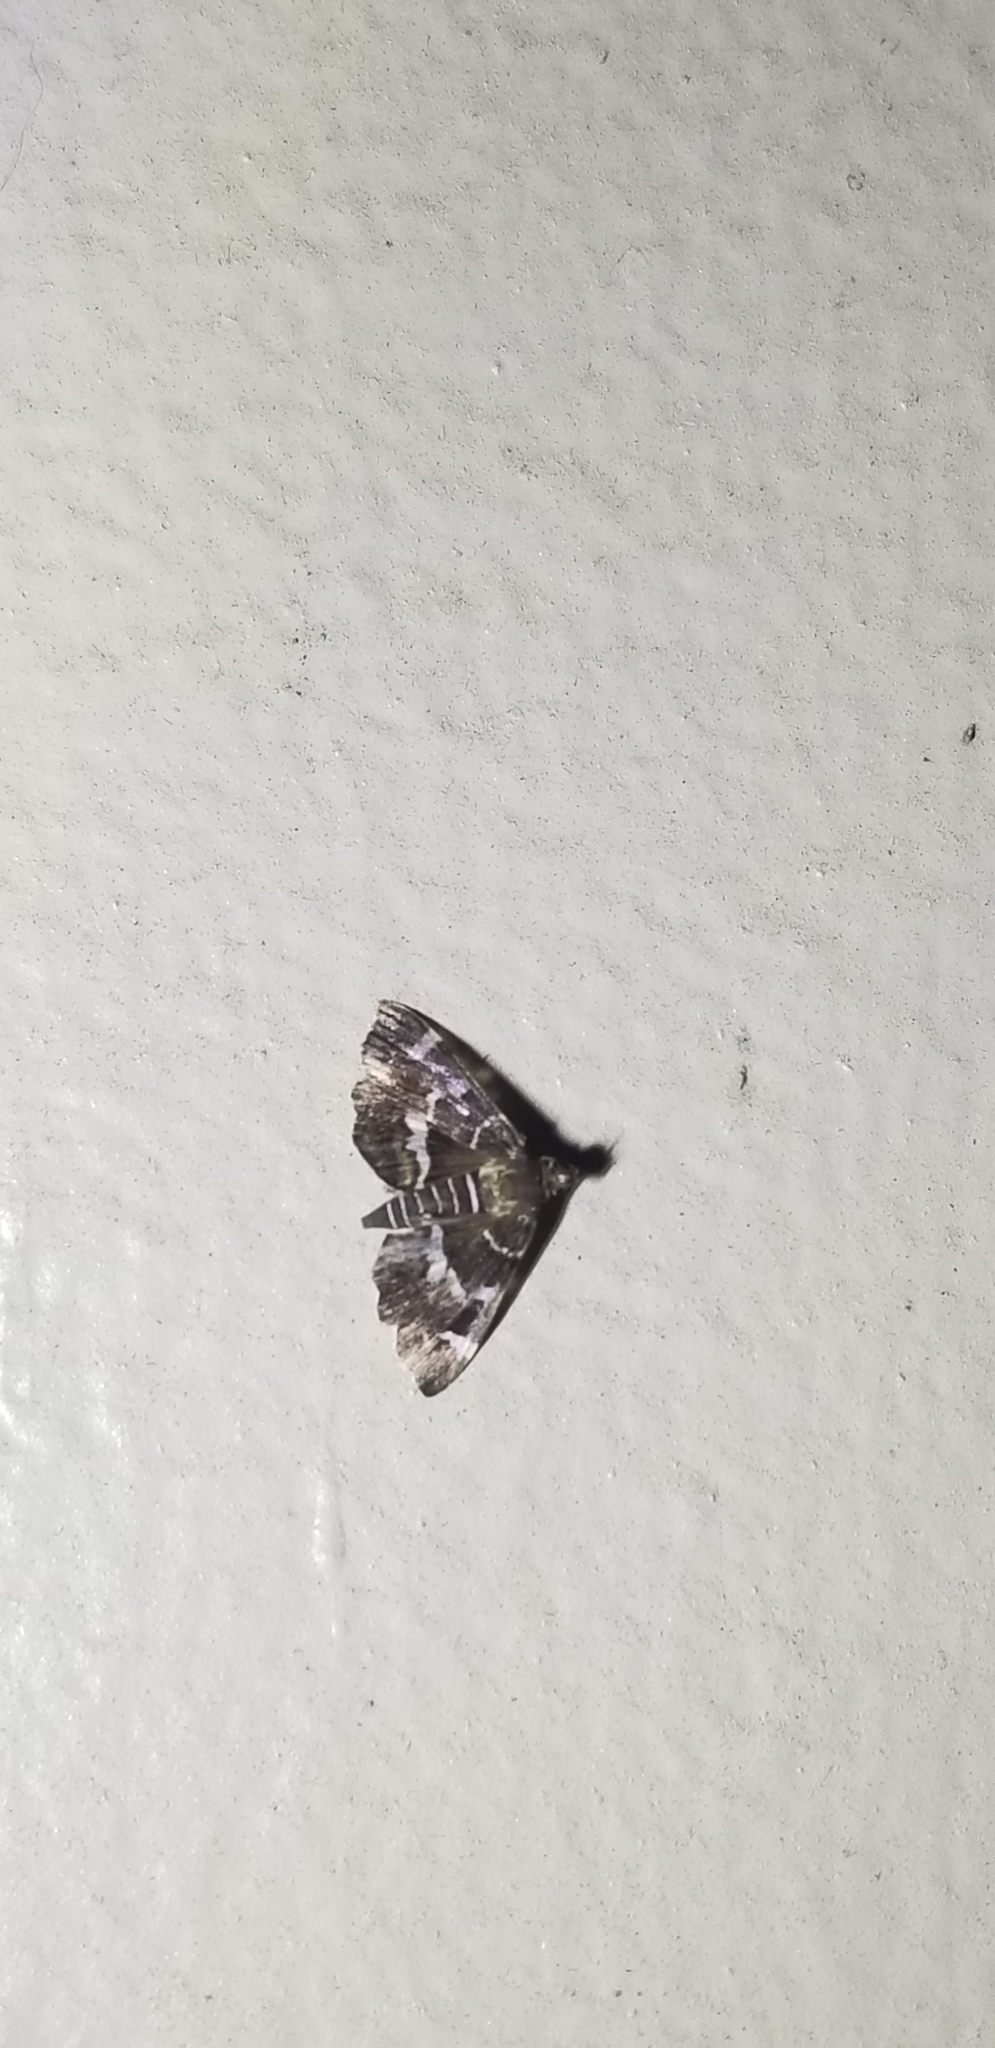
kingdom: Animalia
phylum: Arthropoda
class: Insecta
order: Lepidoptera
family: Crambidae
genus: Hymenia
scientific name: Hymenia perspectalis
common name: Spotted beet webworm
